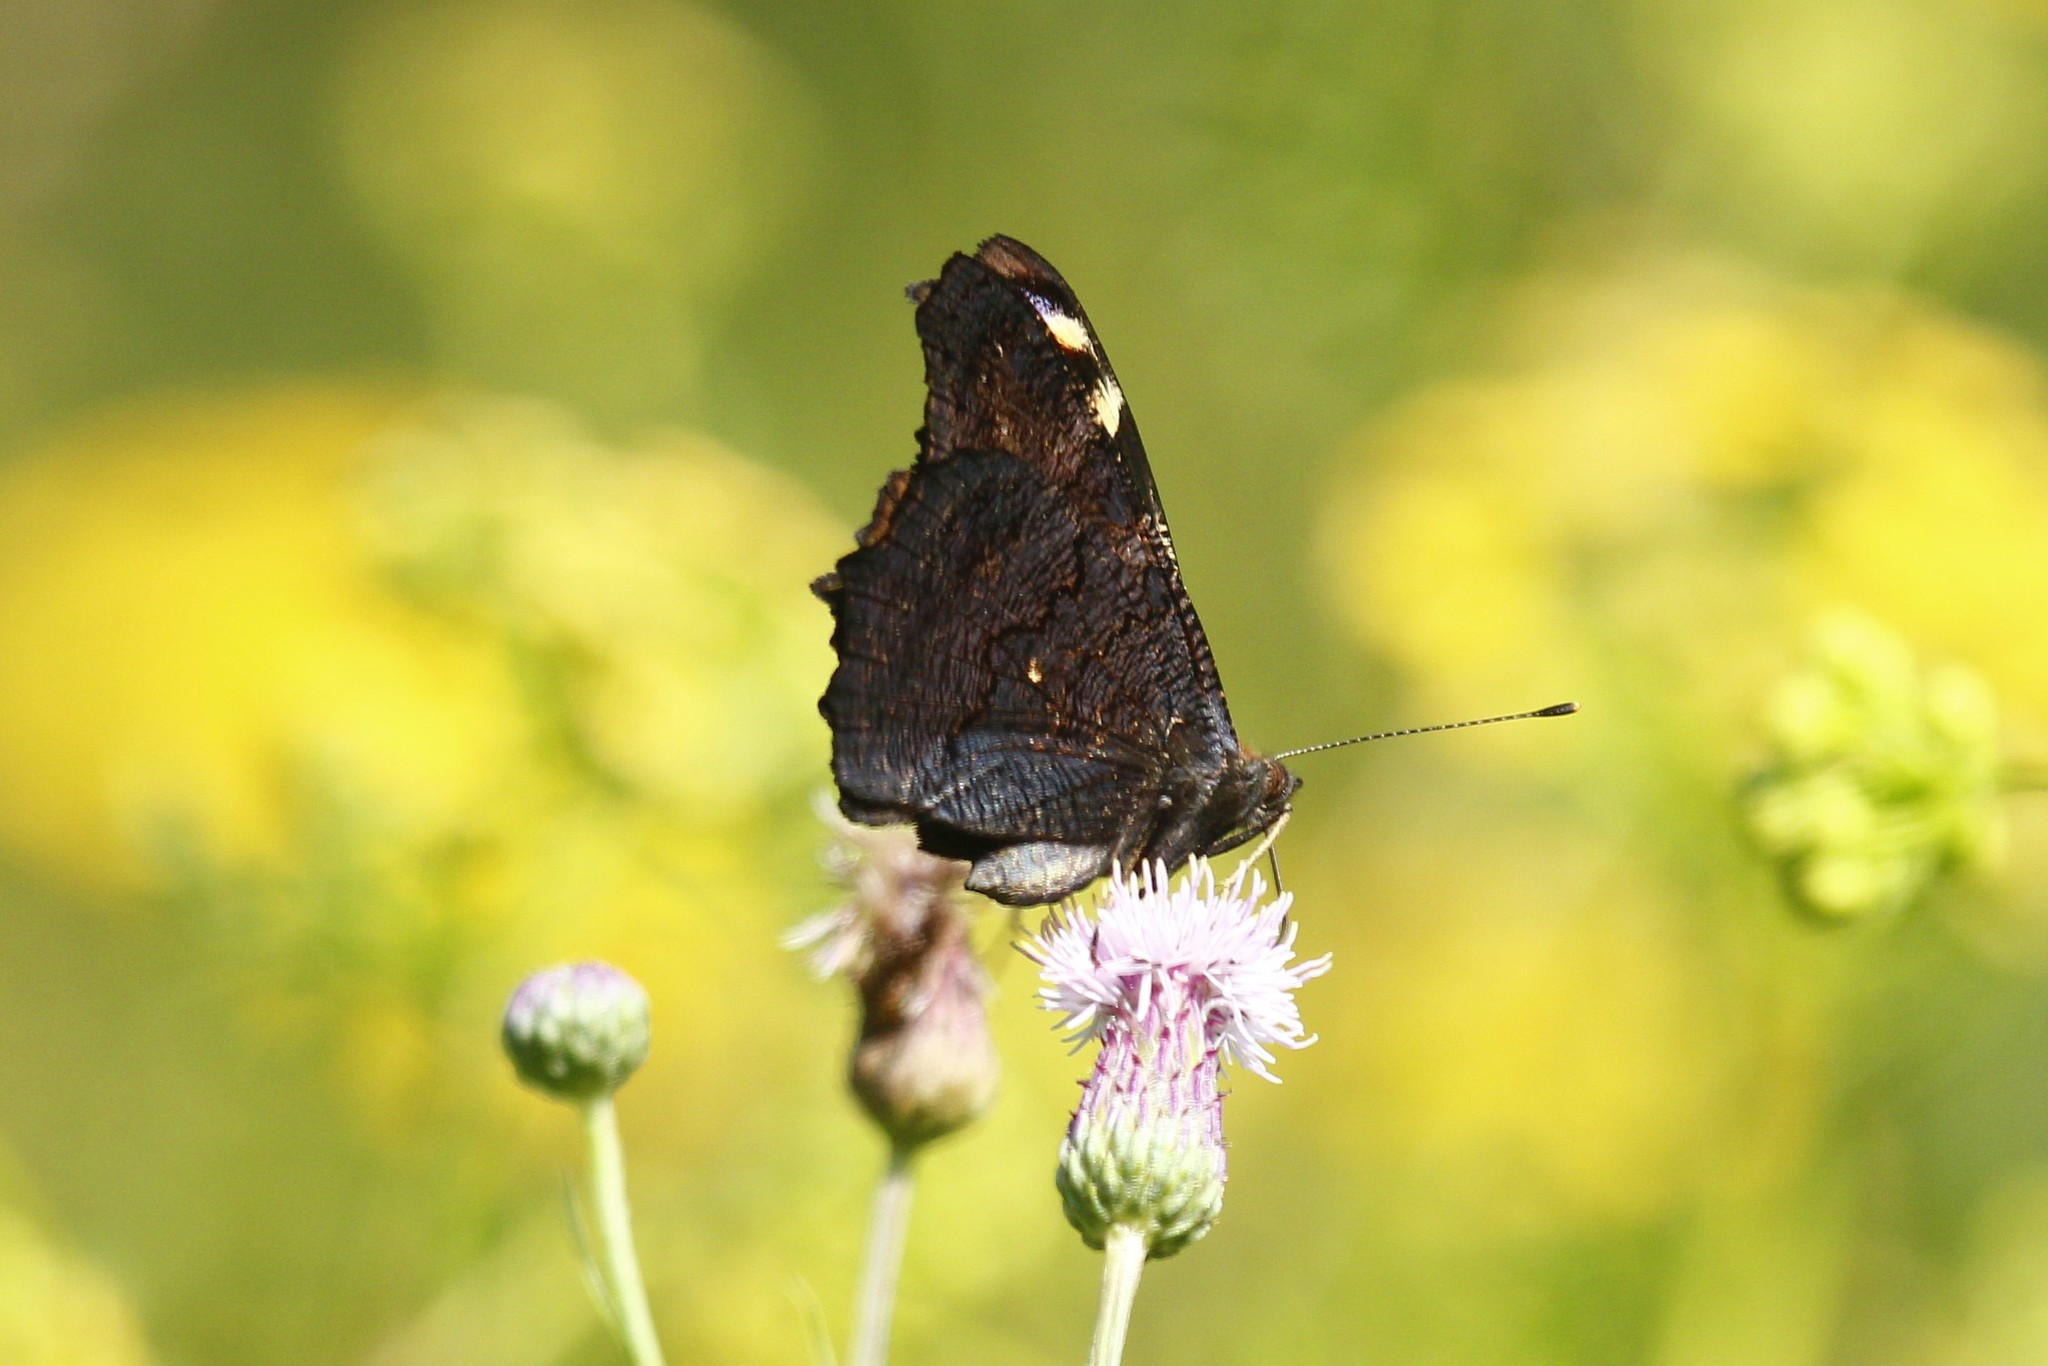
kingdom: Animalia
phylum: Arthropoda
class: Insecta
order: Lepidoptera
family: Nymphalidae
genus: Aglais
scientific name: Aglais io
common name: Peacock
